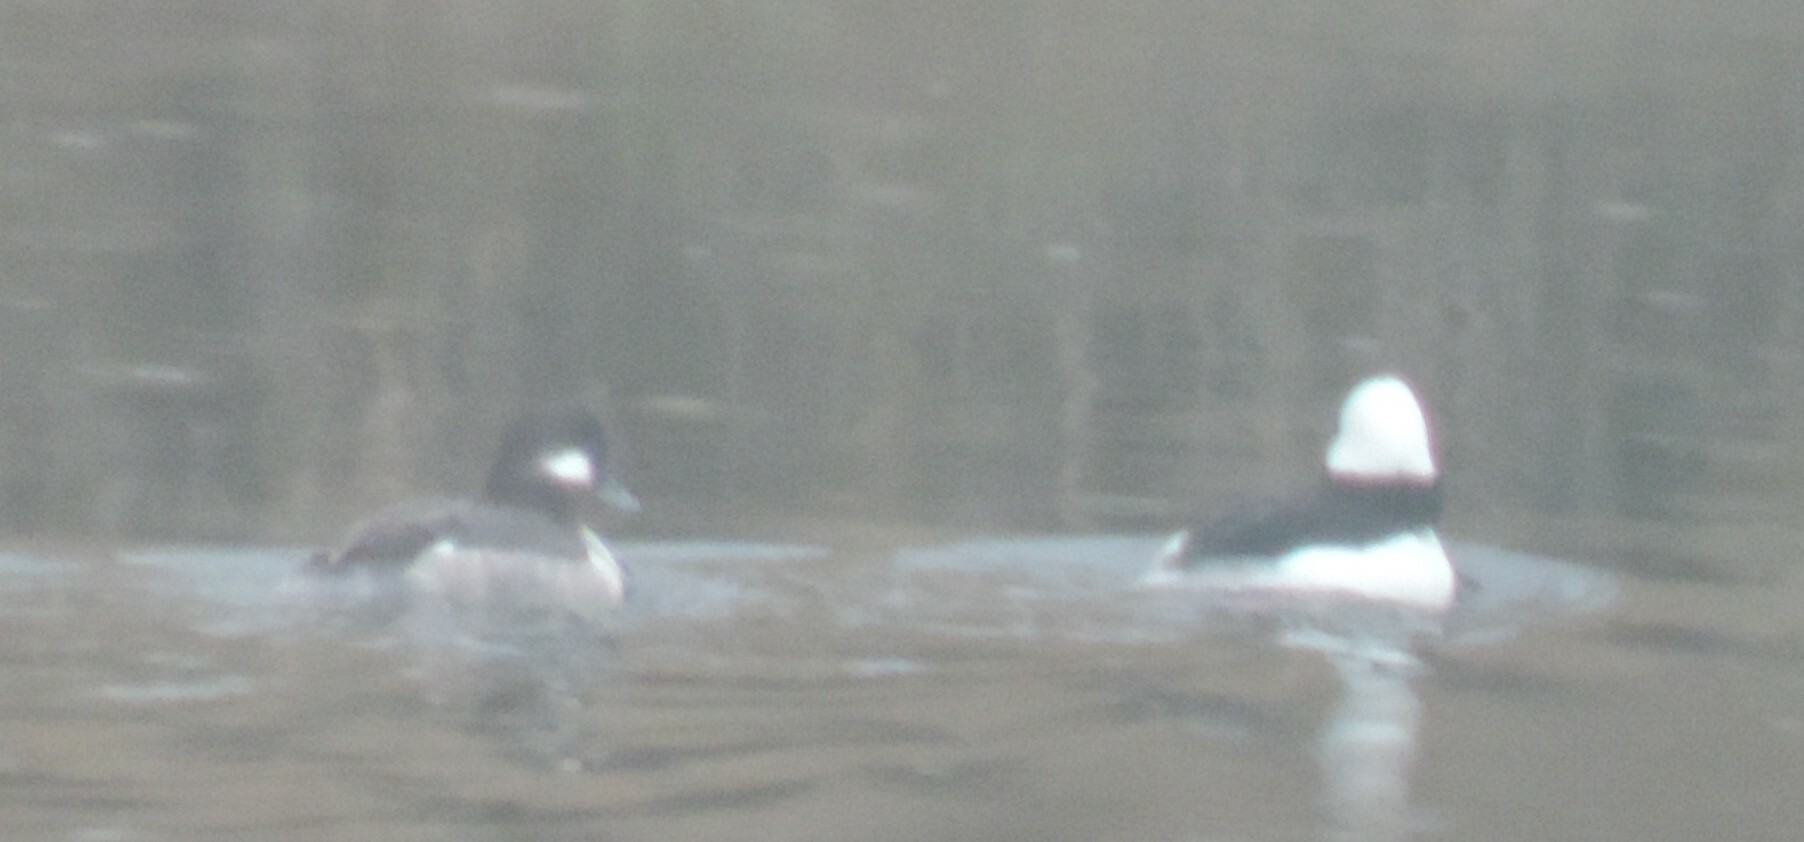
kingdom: Animalia
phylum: Chordata
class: Aves
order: Anseriformes
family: Anatidae
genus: Bucephala
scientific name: Bucephala albeola
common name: Bufflehead
